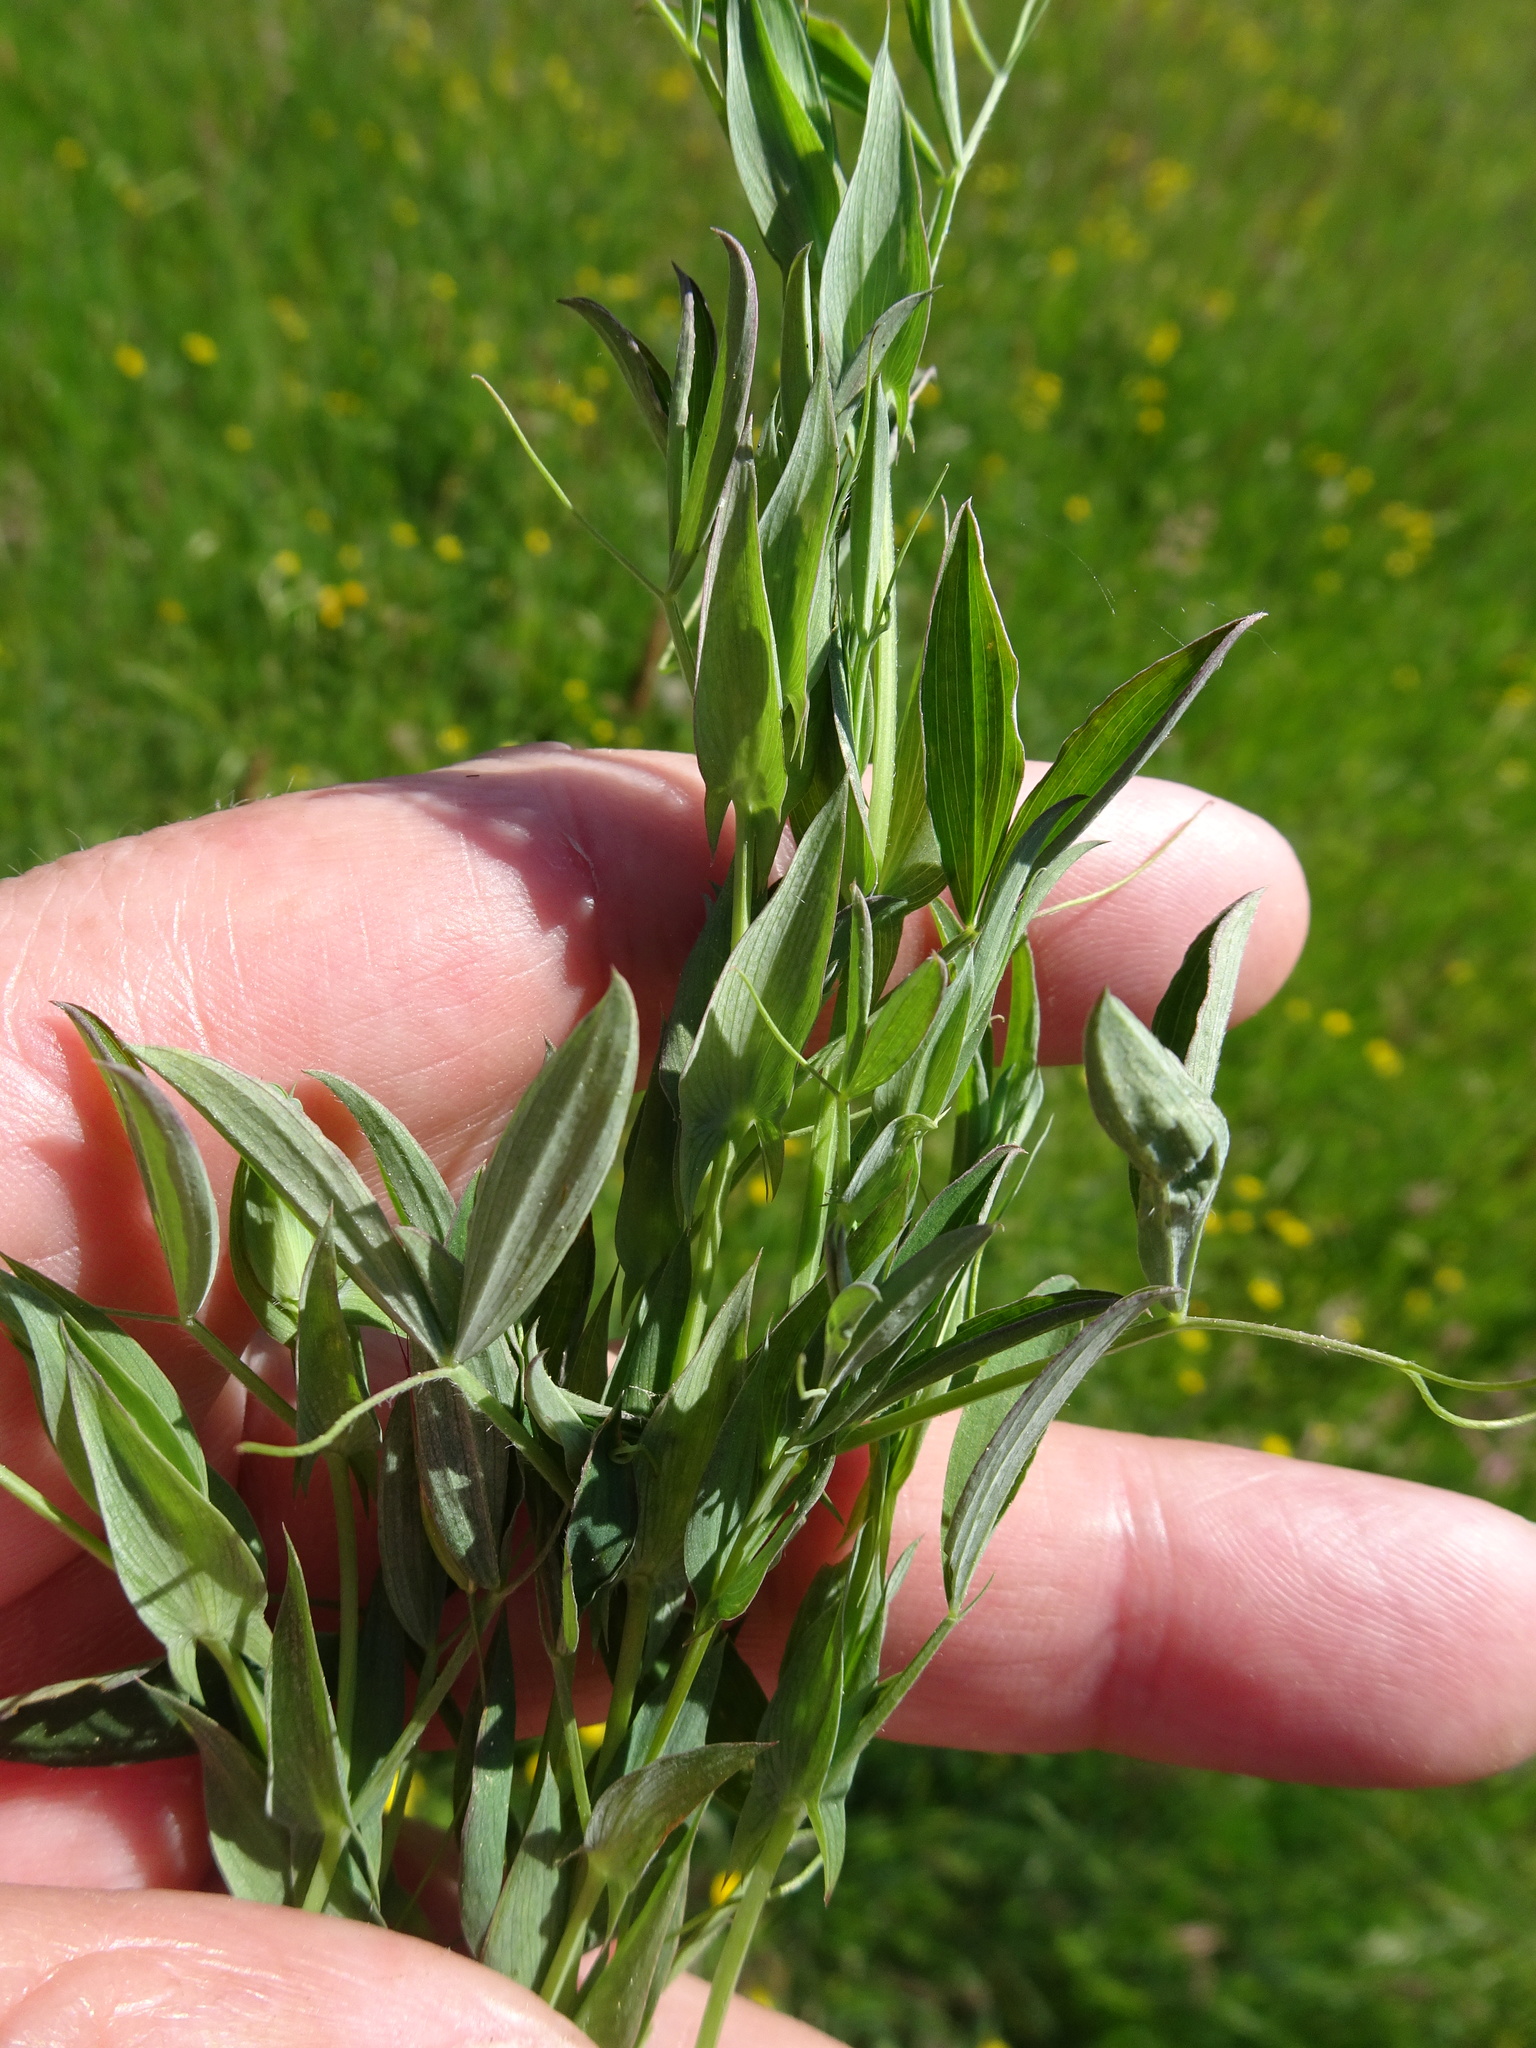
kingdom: Plantae
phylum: Tracheophyta
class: Magnoliopsida
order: Fabales
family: Fabaceae
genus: Lathyrus
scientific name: Lathyrus pratensis
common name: Meadow vetchling
